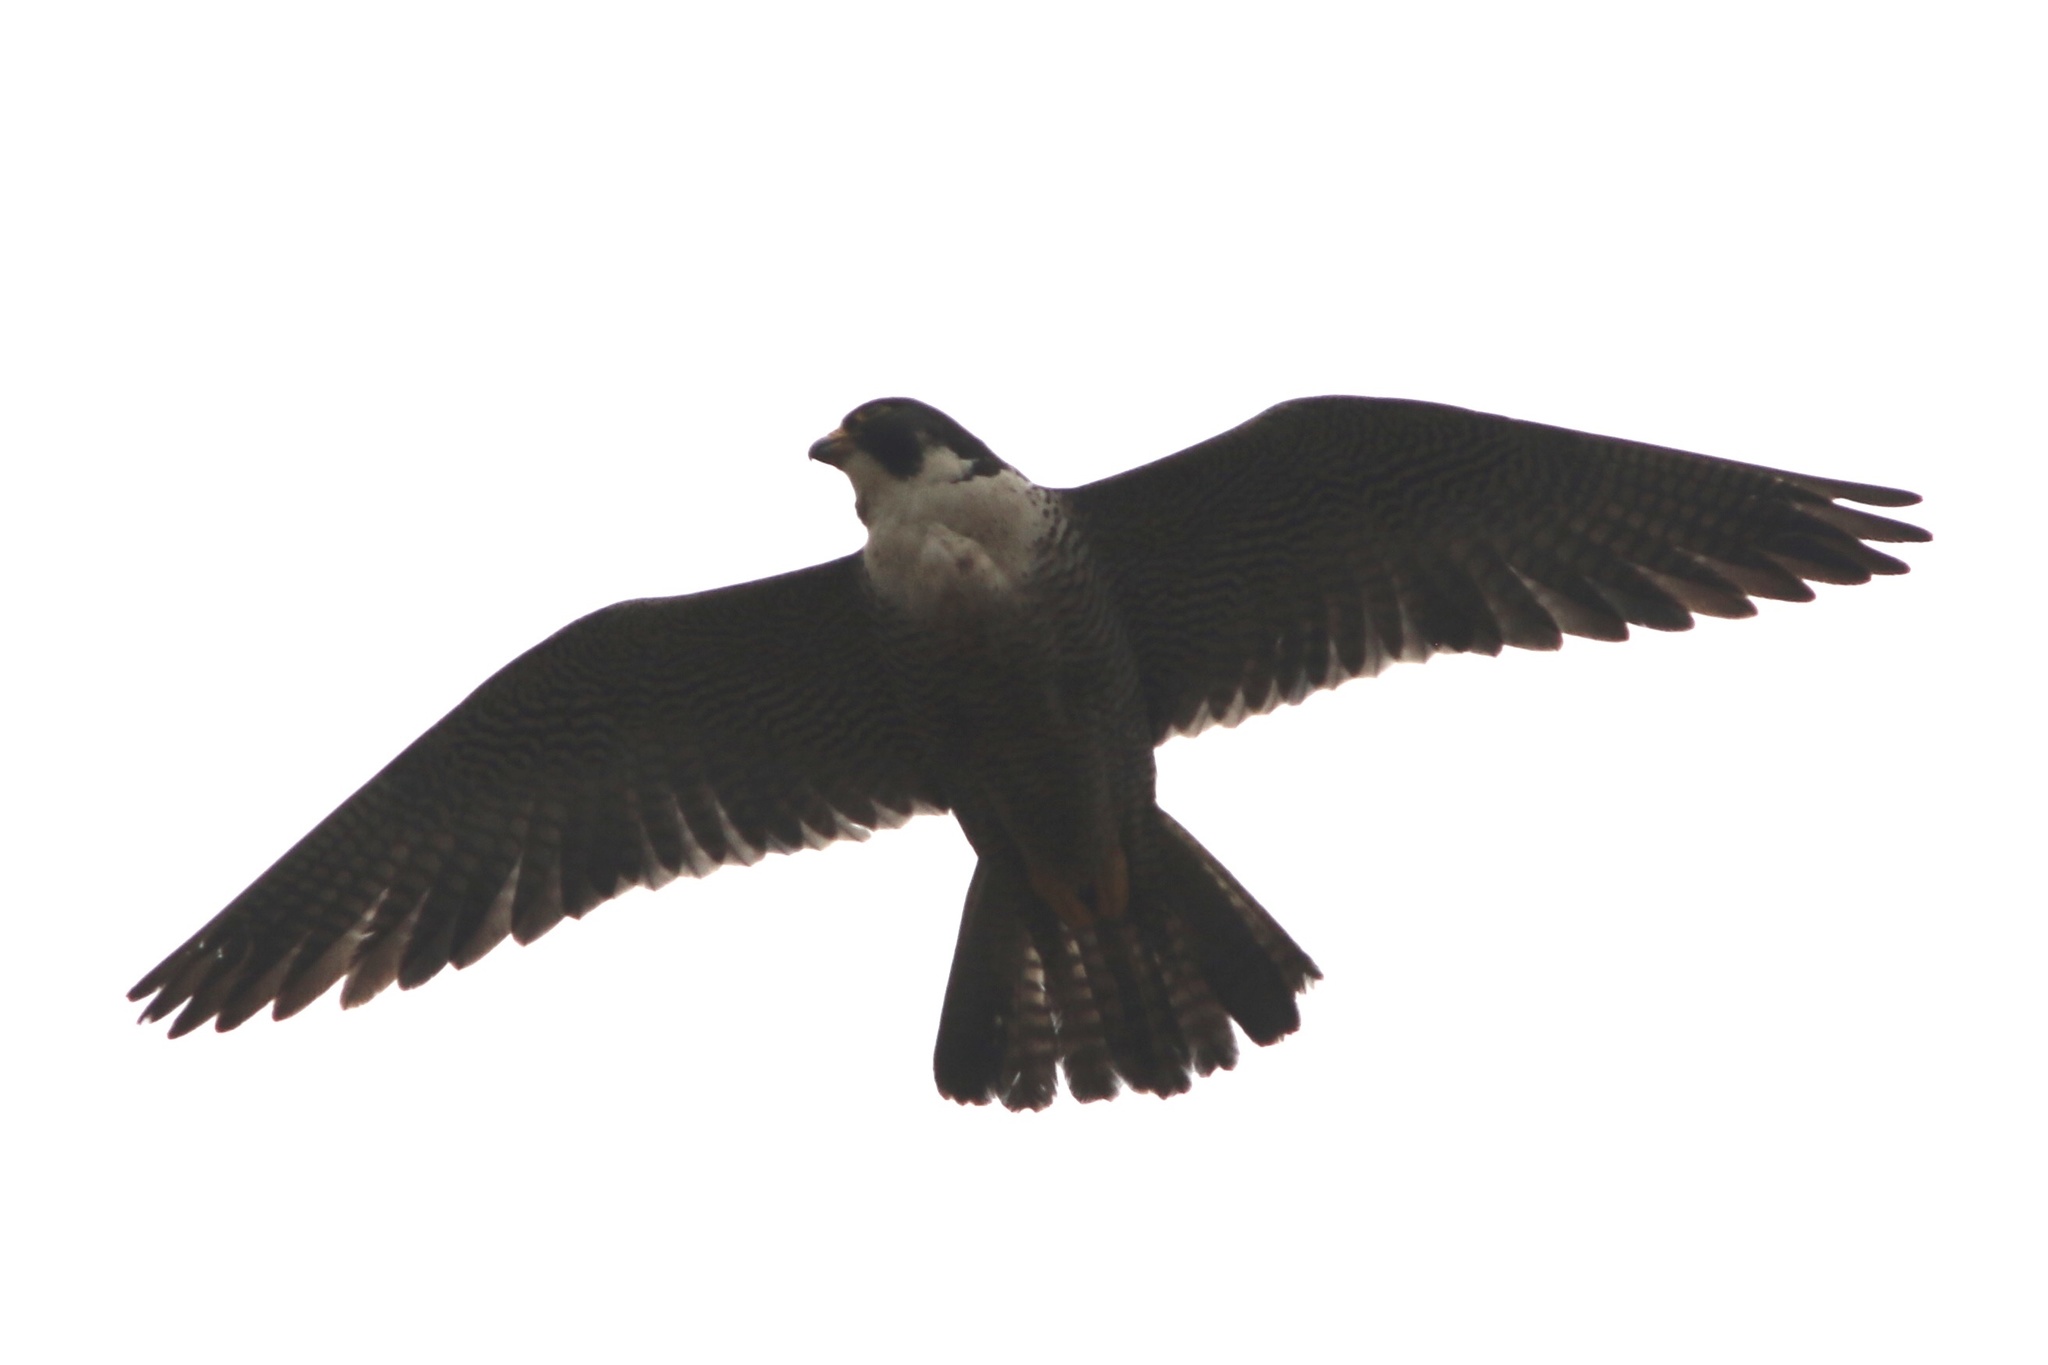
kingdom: Animalia
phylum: Chordata
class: Aves
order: Falconiformes
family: Falconidae
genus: Falco
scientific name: Falco peregrinus
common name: Peregrine falcon
